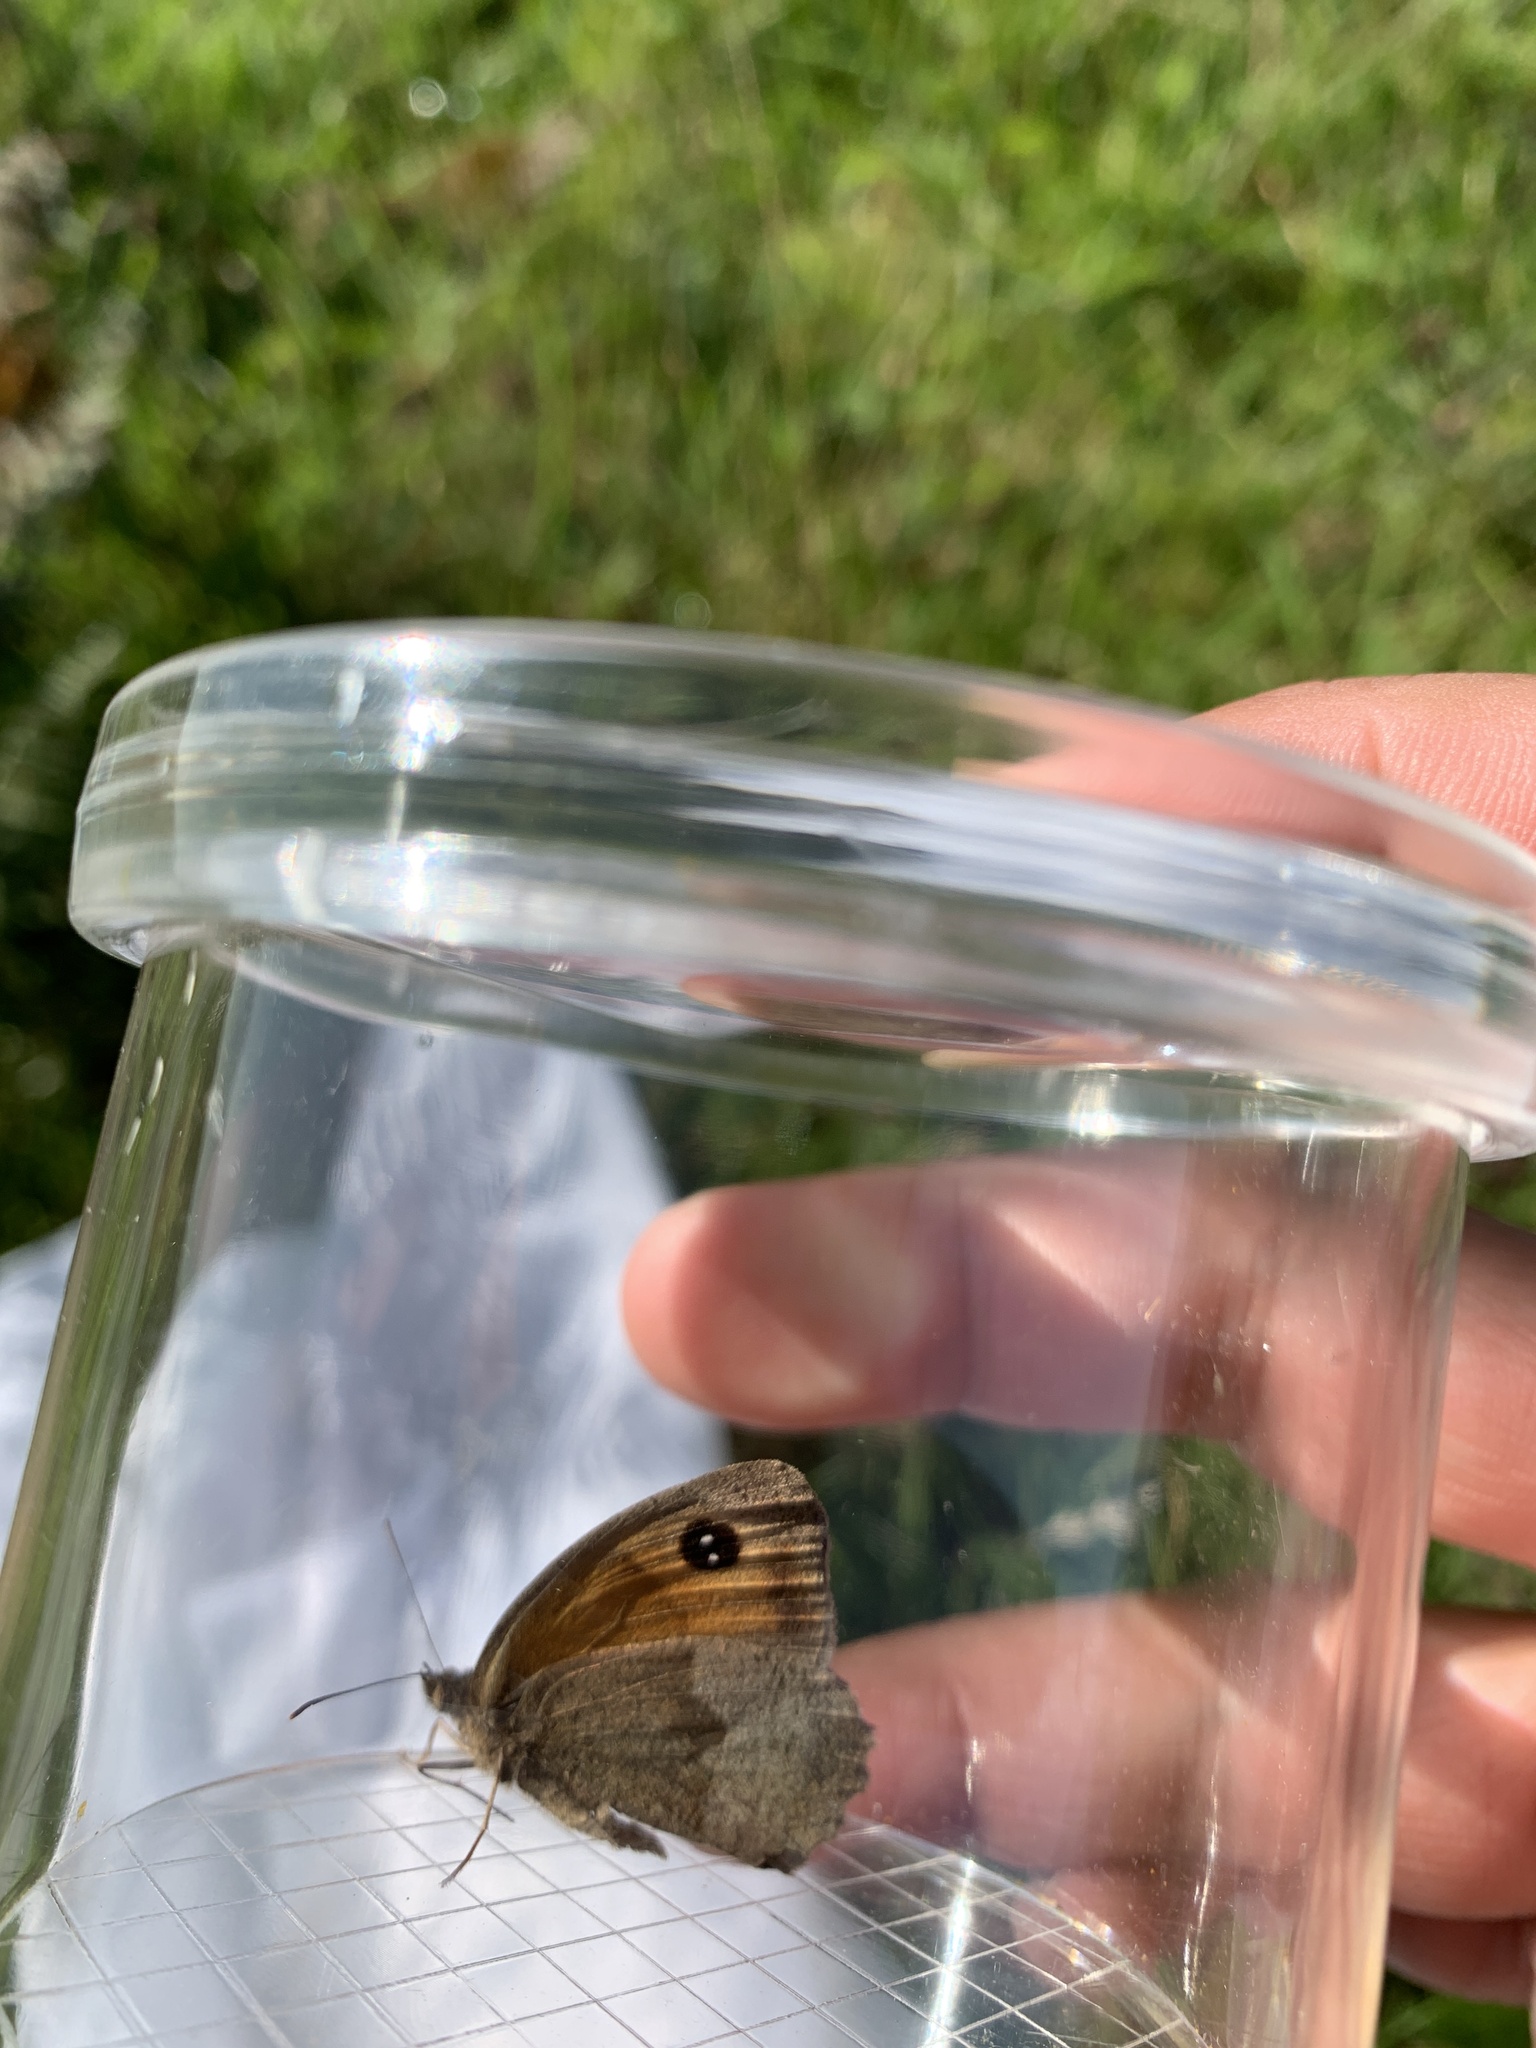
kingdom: Animalia
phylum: Arthropoda
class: Insecta
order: Lepidoptera
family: Nymphalidae
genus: Pyronia
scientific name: Pyronia tithonus
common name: Gatekeeper
